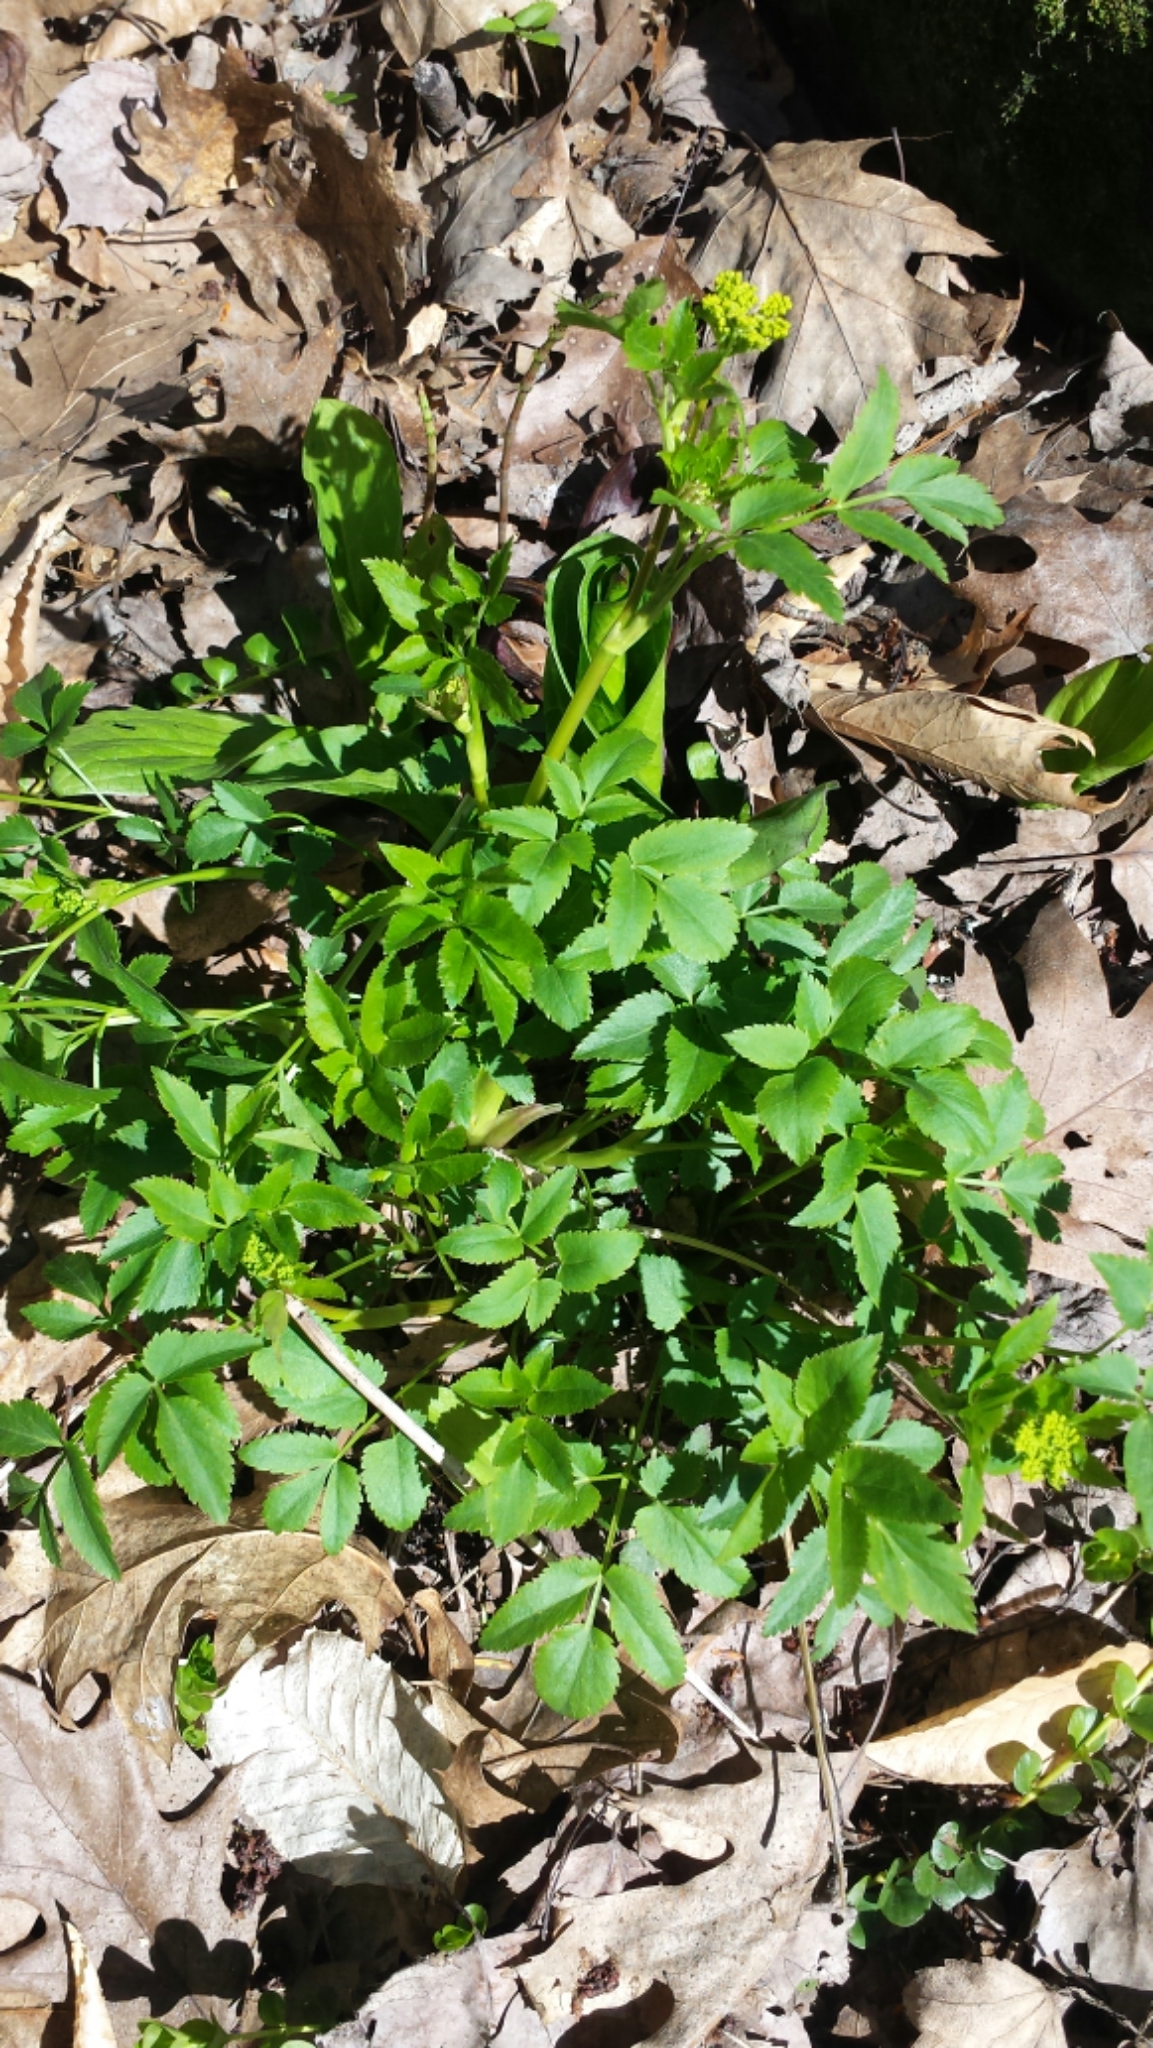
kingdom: Plantae
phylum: Tracheophyta
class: Magnoliopsida
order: Apiales
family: Apiaceae
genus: Zizia
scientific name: Zizia aurea
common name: Golden alexanders
